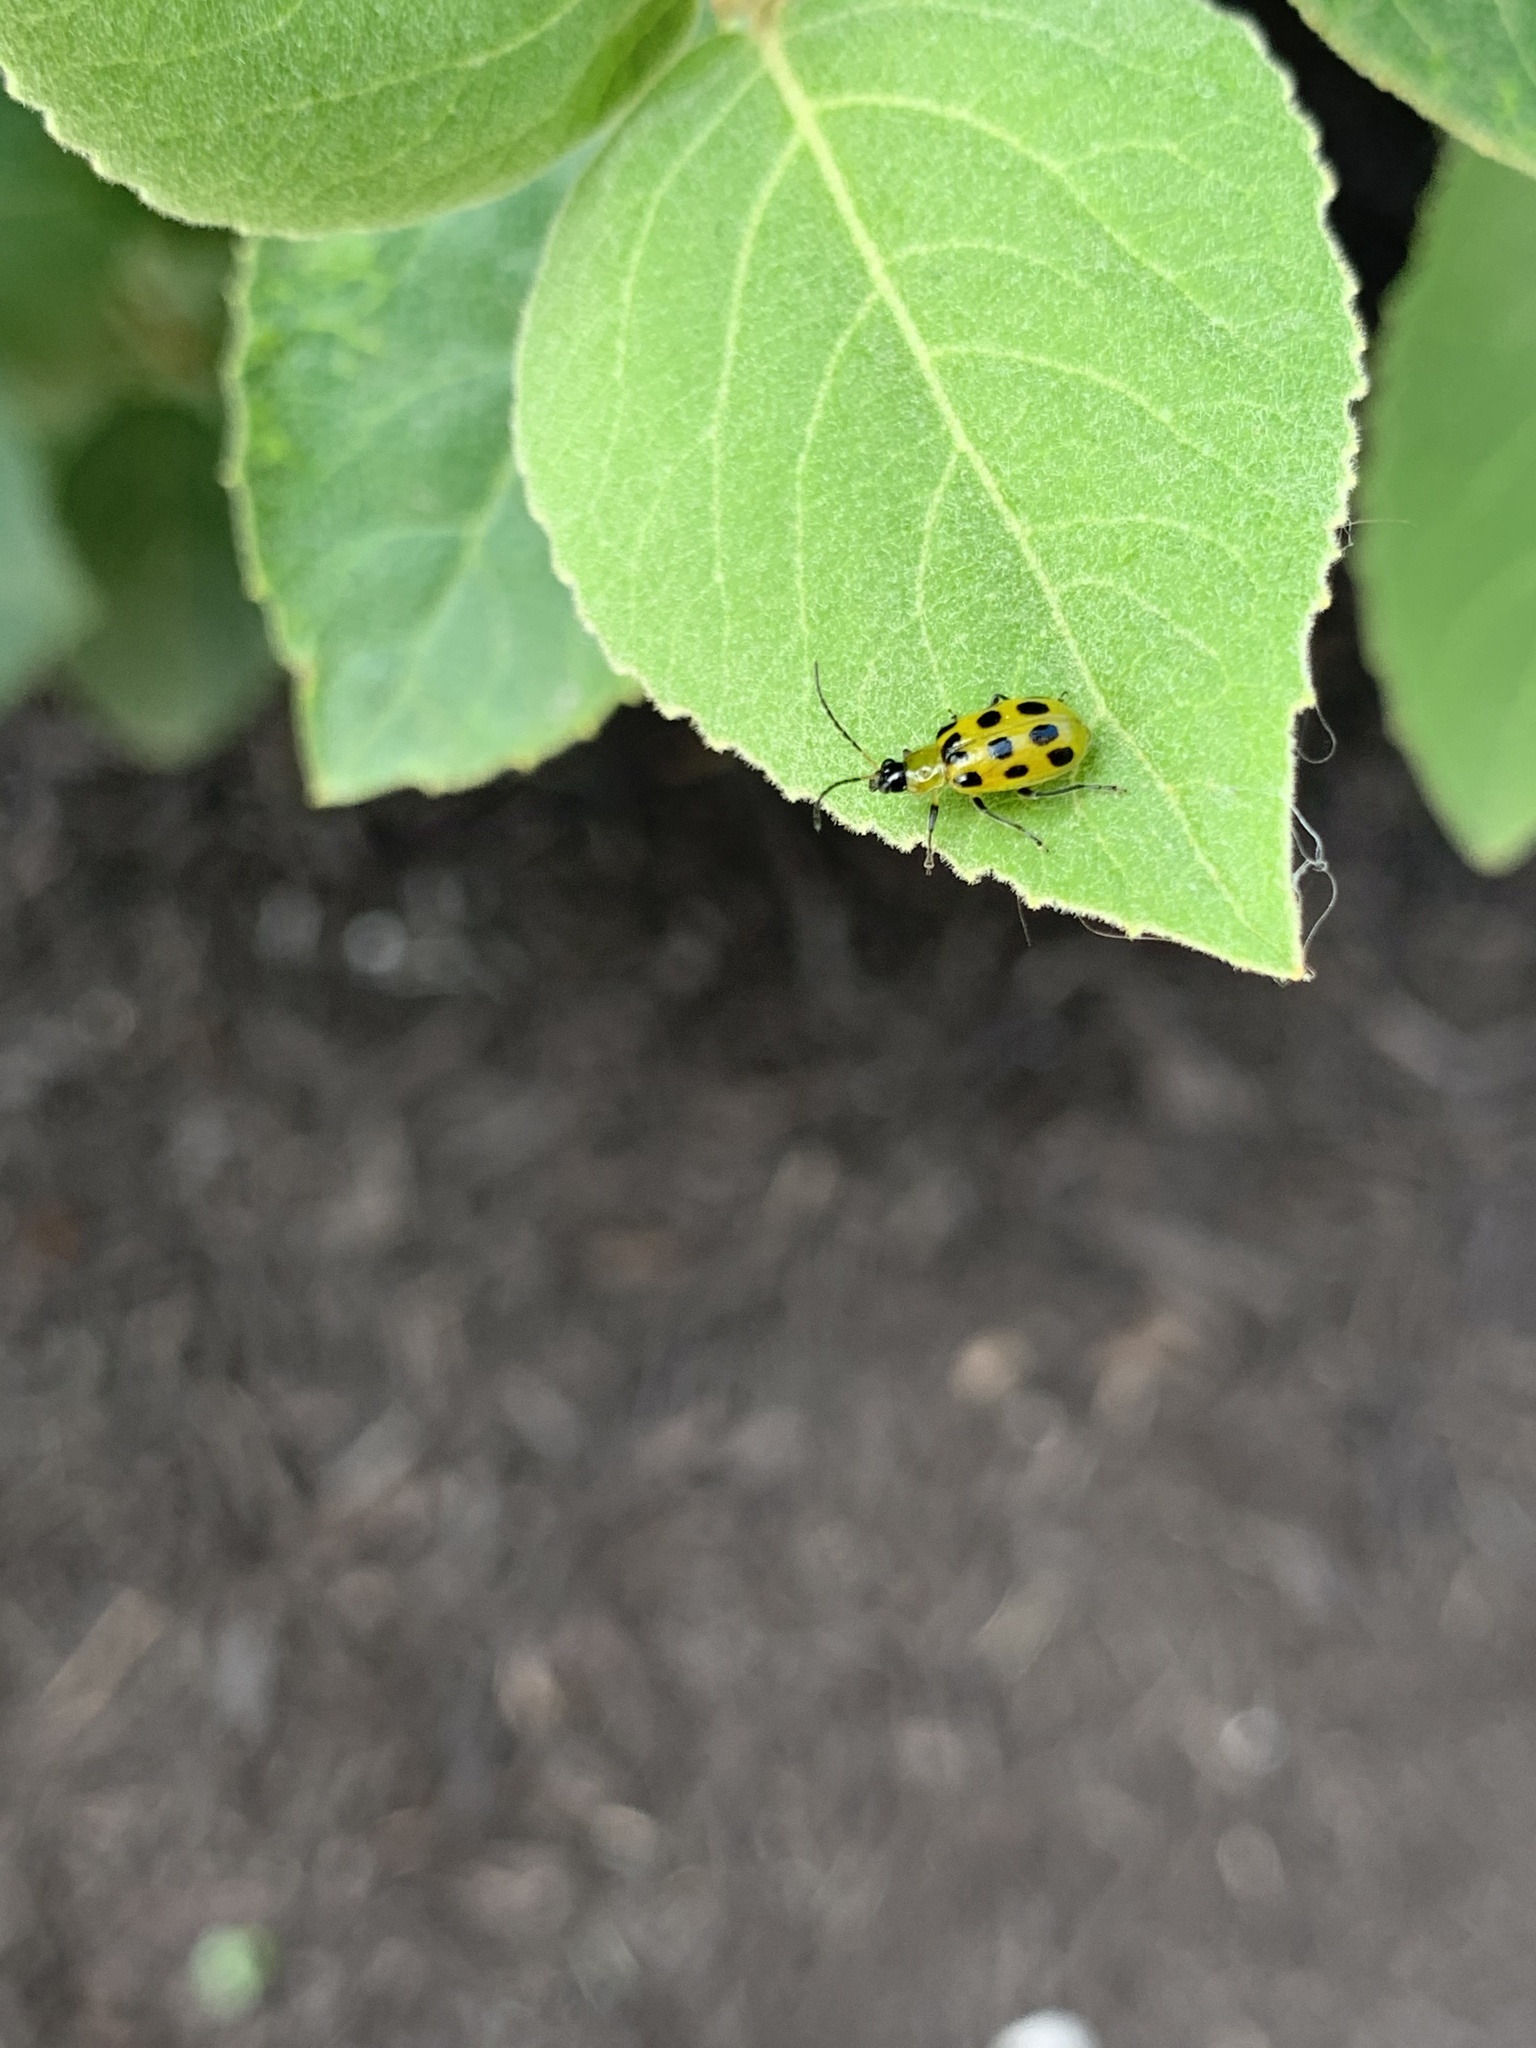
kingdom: Animalia
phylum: Arthropoda
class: Insecta
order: Coleoptera
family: Chrysomelidae
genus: Diabrotica
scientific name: Diabrotica undecimpunctata
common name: Spotted cucumber beetle
